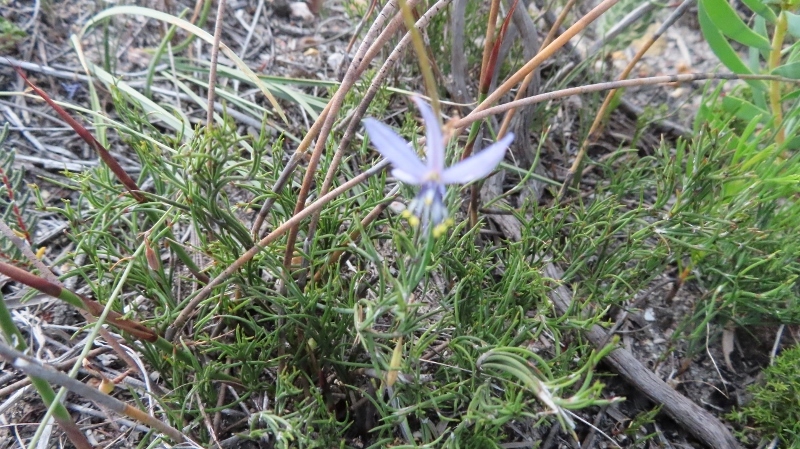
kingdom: Plantae
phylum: Tracheophyta
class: Liliopsida
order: Asparagales
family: Asphodelaceae
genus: Caesia
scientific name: Caesia contorta
